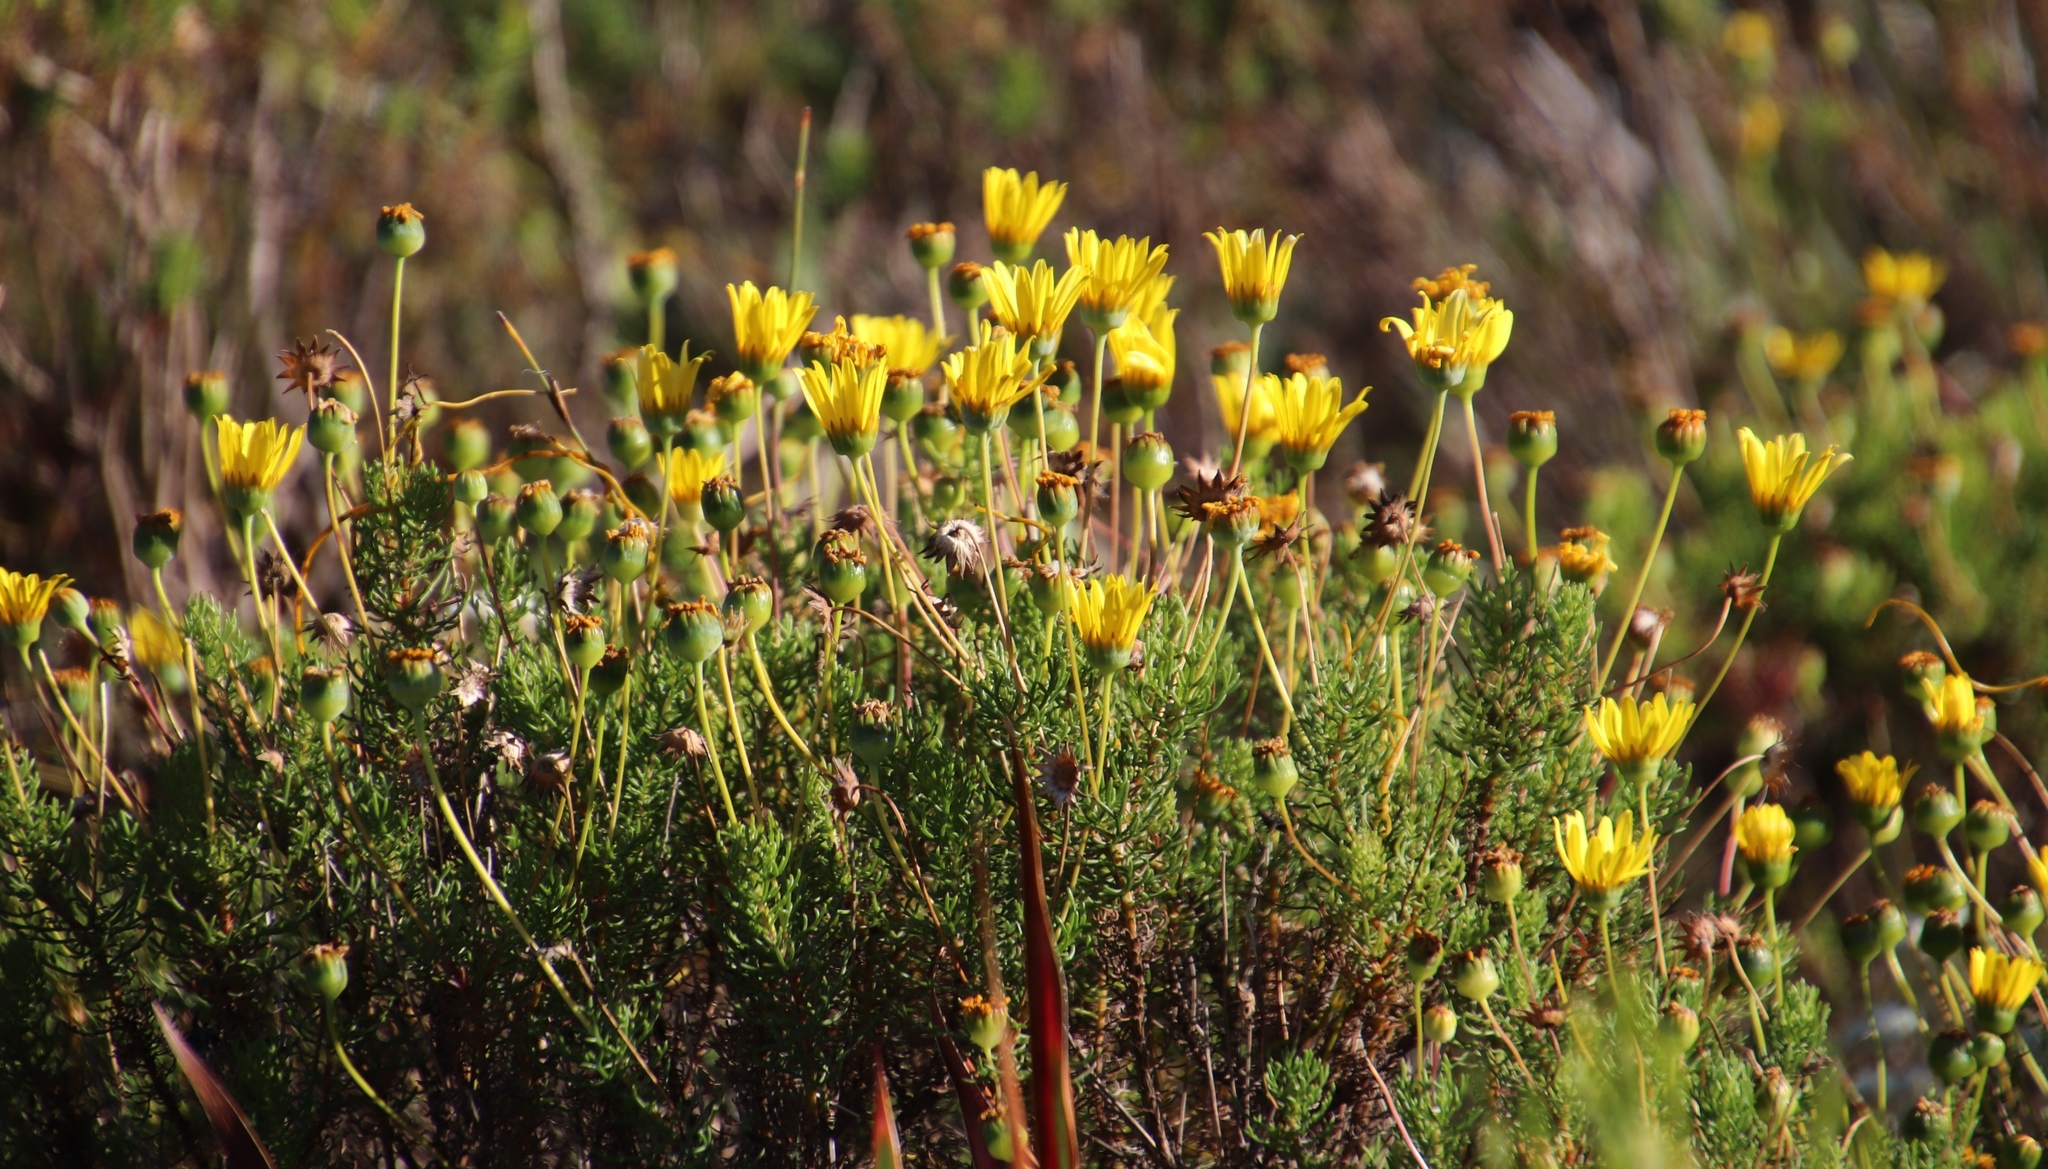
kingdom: Plantae
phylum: Tracheophyta
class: Magnoliopsida
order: Asterales
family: Asteraceae
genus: Euryops
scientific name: Euryops abrotanifolius
